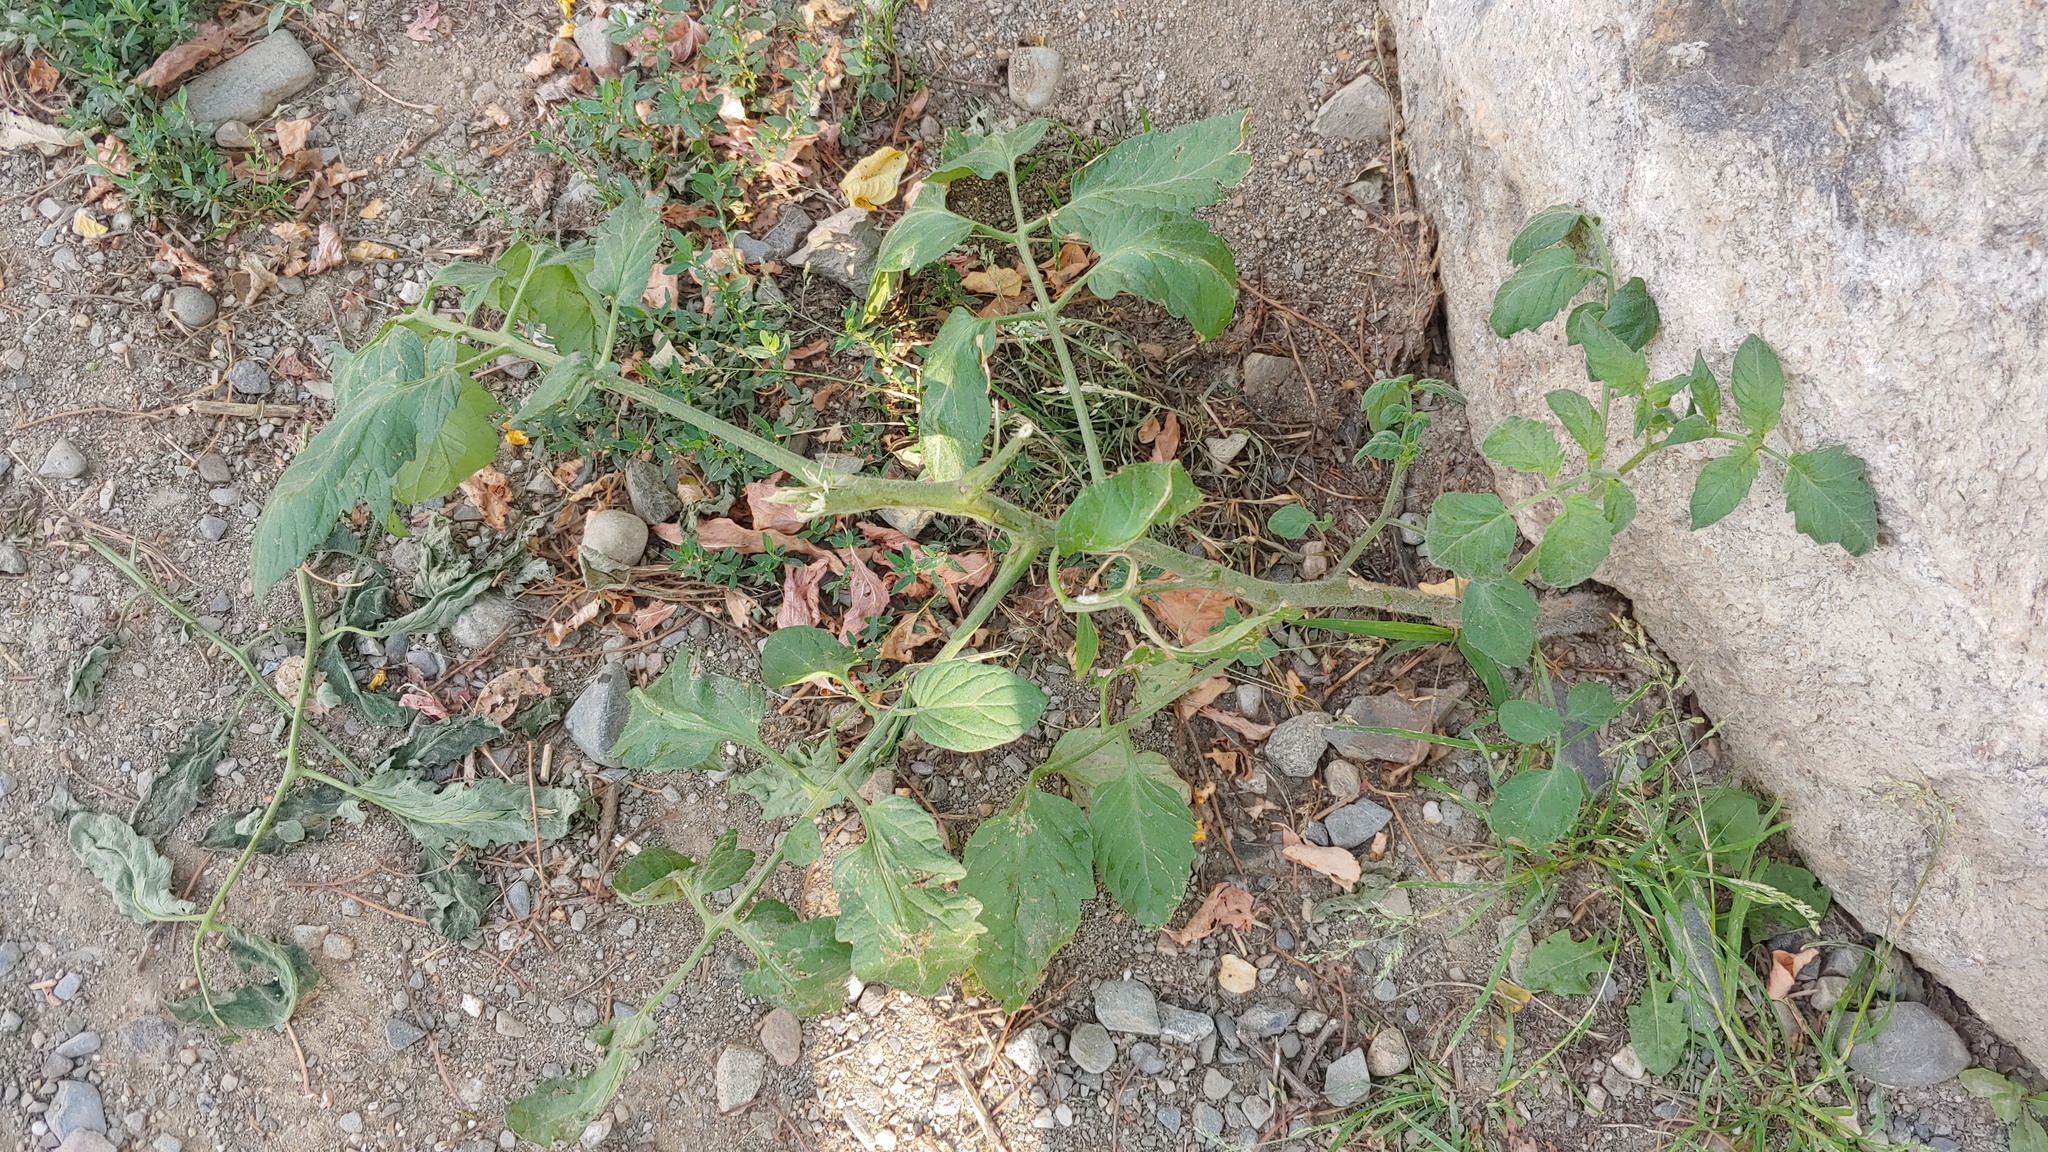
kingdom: Plantae
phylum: Tracheophyta
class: Magnoliopsida
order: Solanales
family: Solanaceae
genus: Solanum
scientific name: Solanum lycopersicum
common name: Garden tomato
